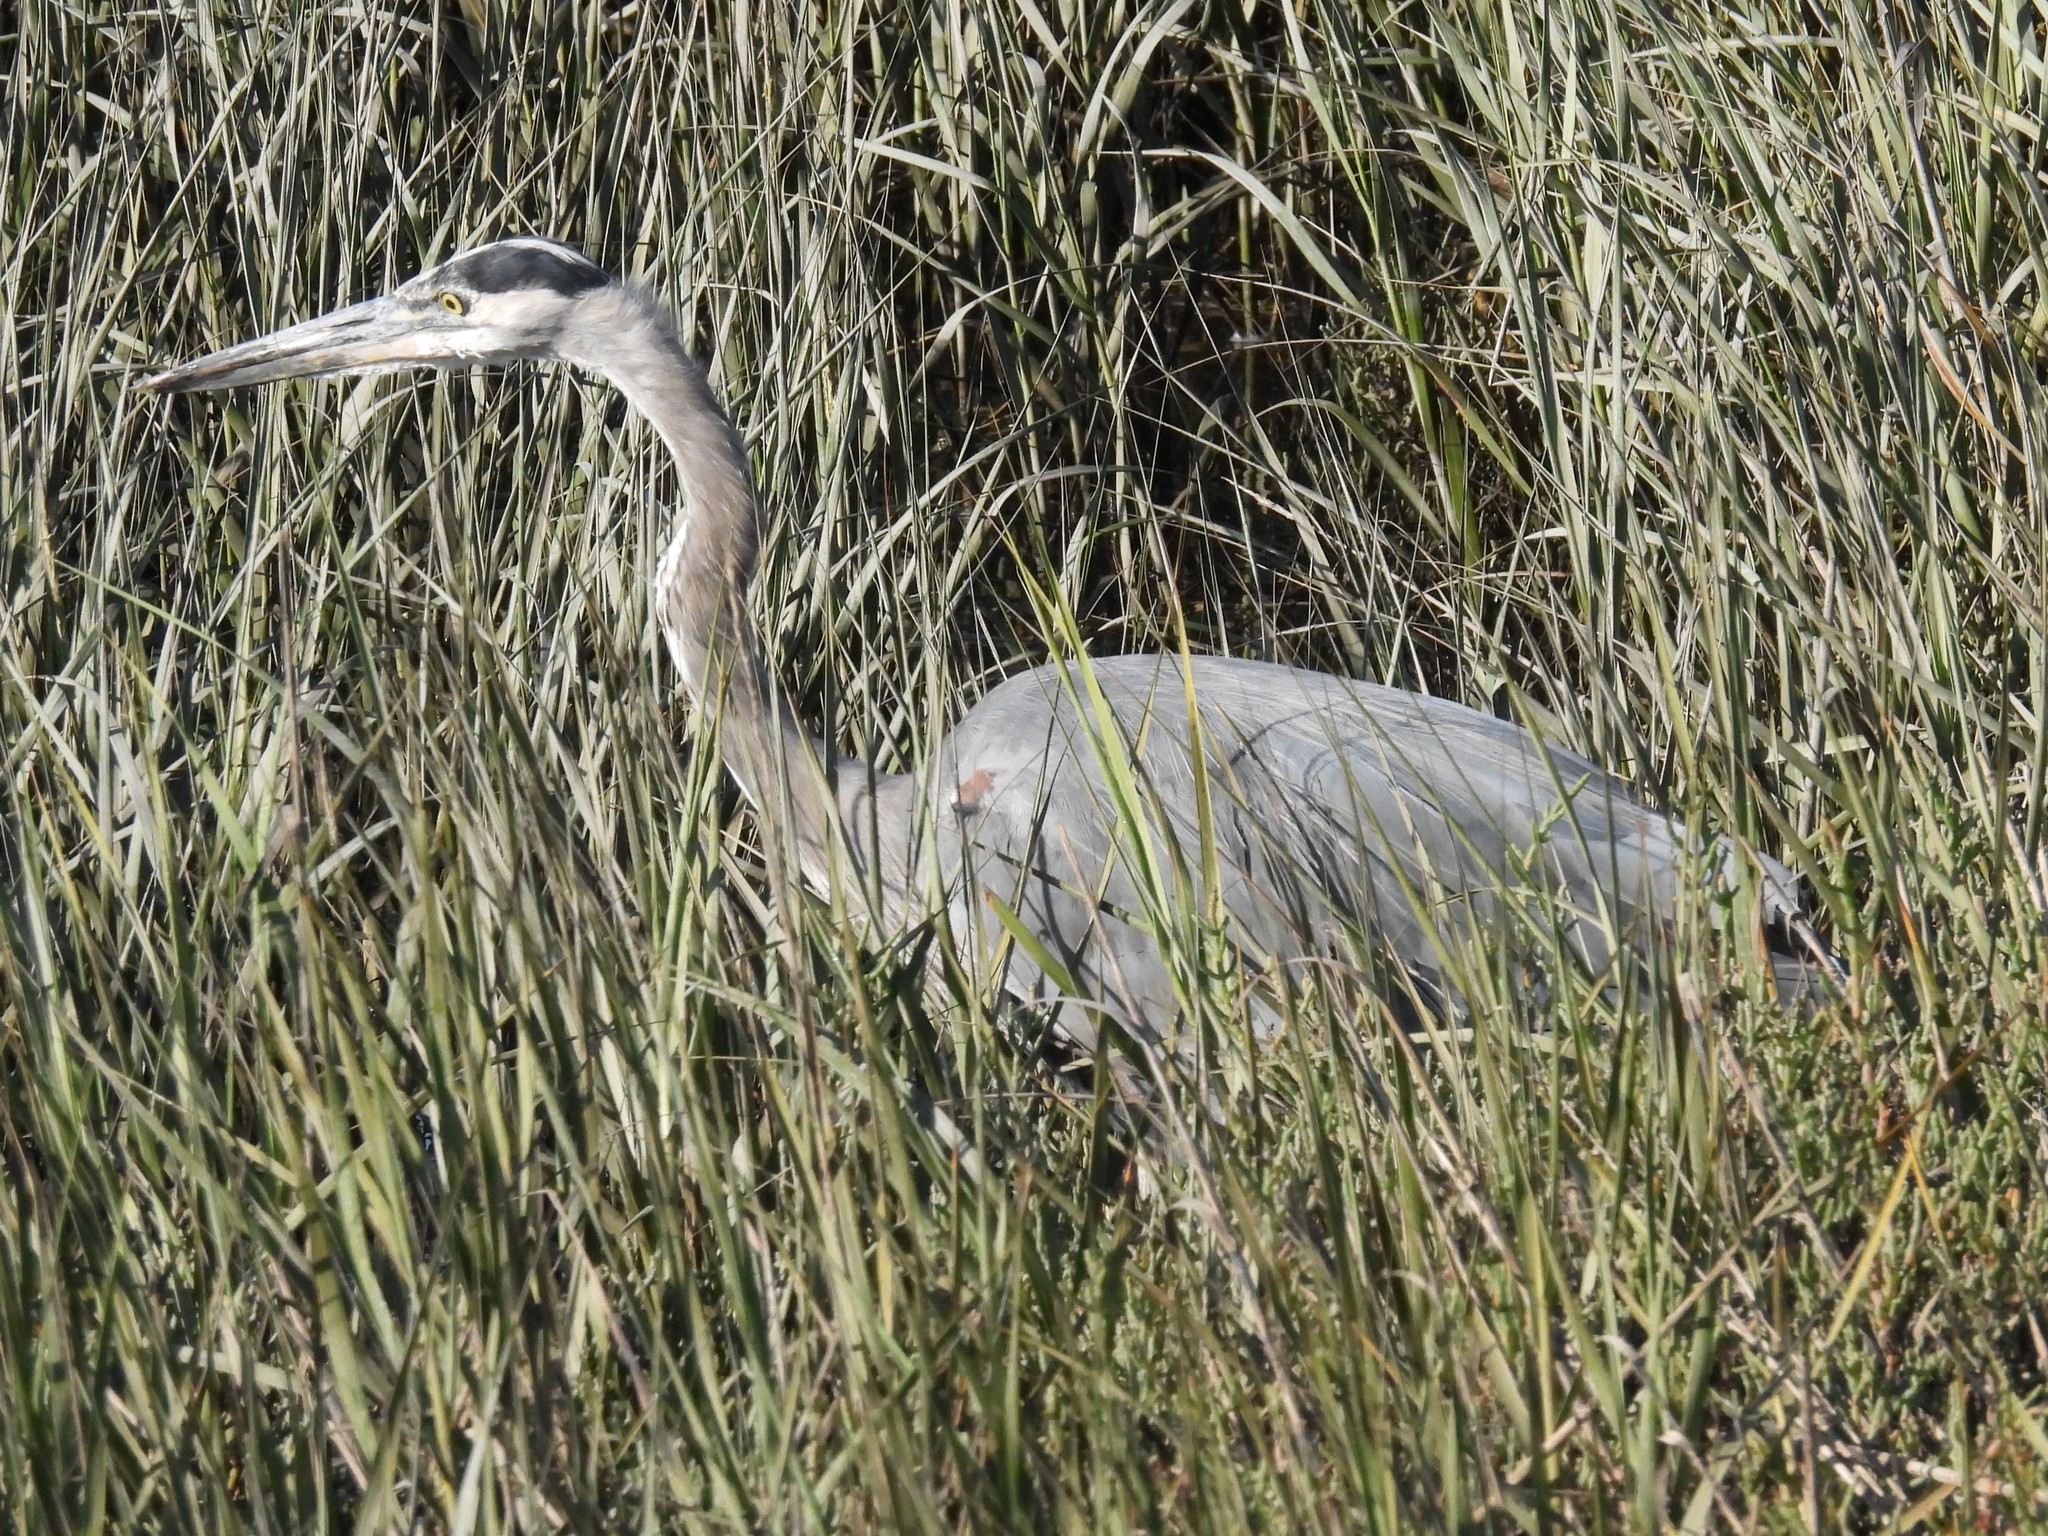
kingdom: Animalia
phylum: Chordata
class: Aves
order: Pelecaniformes
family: Ardeidae
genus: Ardea
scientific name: Ardea herodias
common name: Great blue heron
